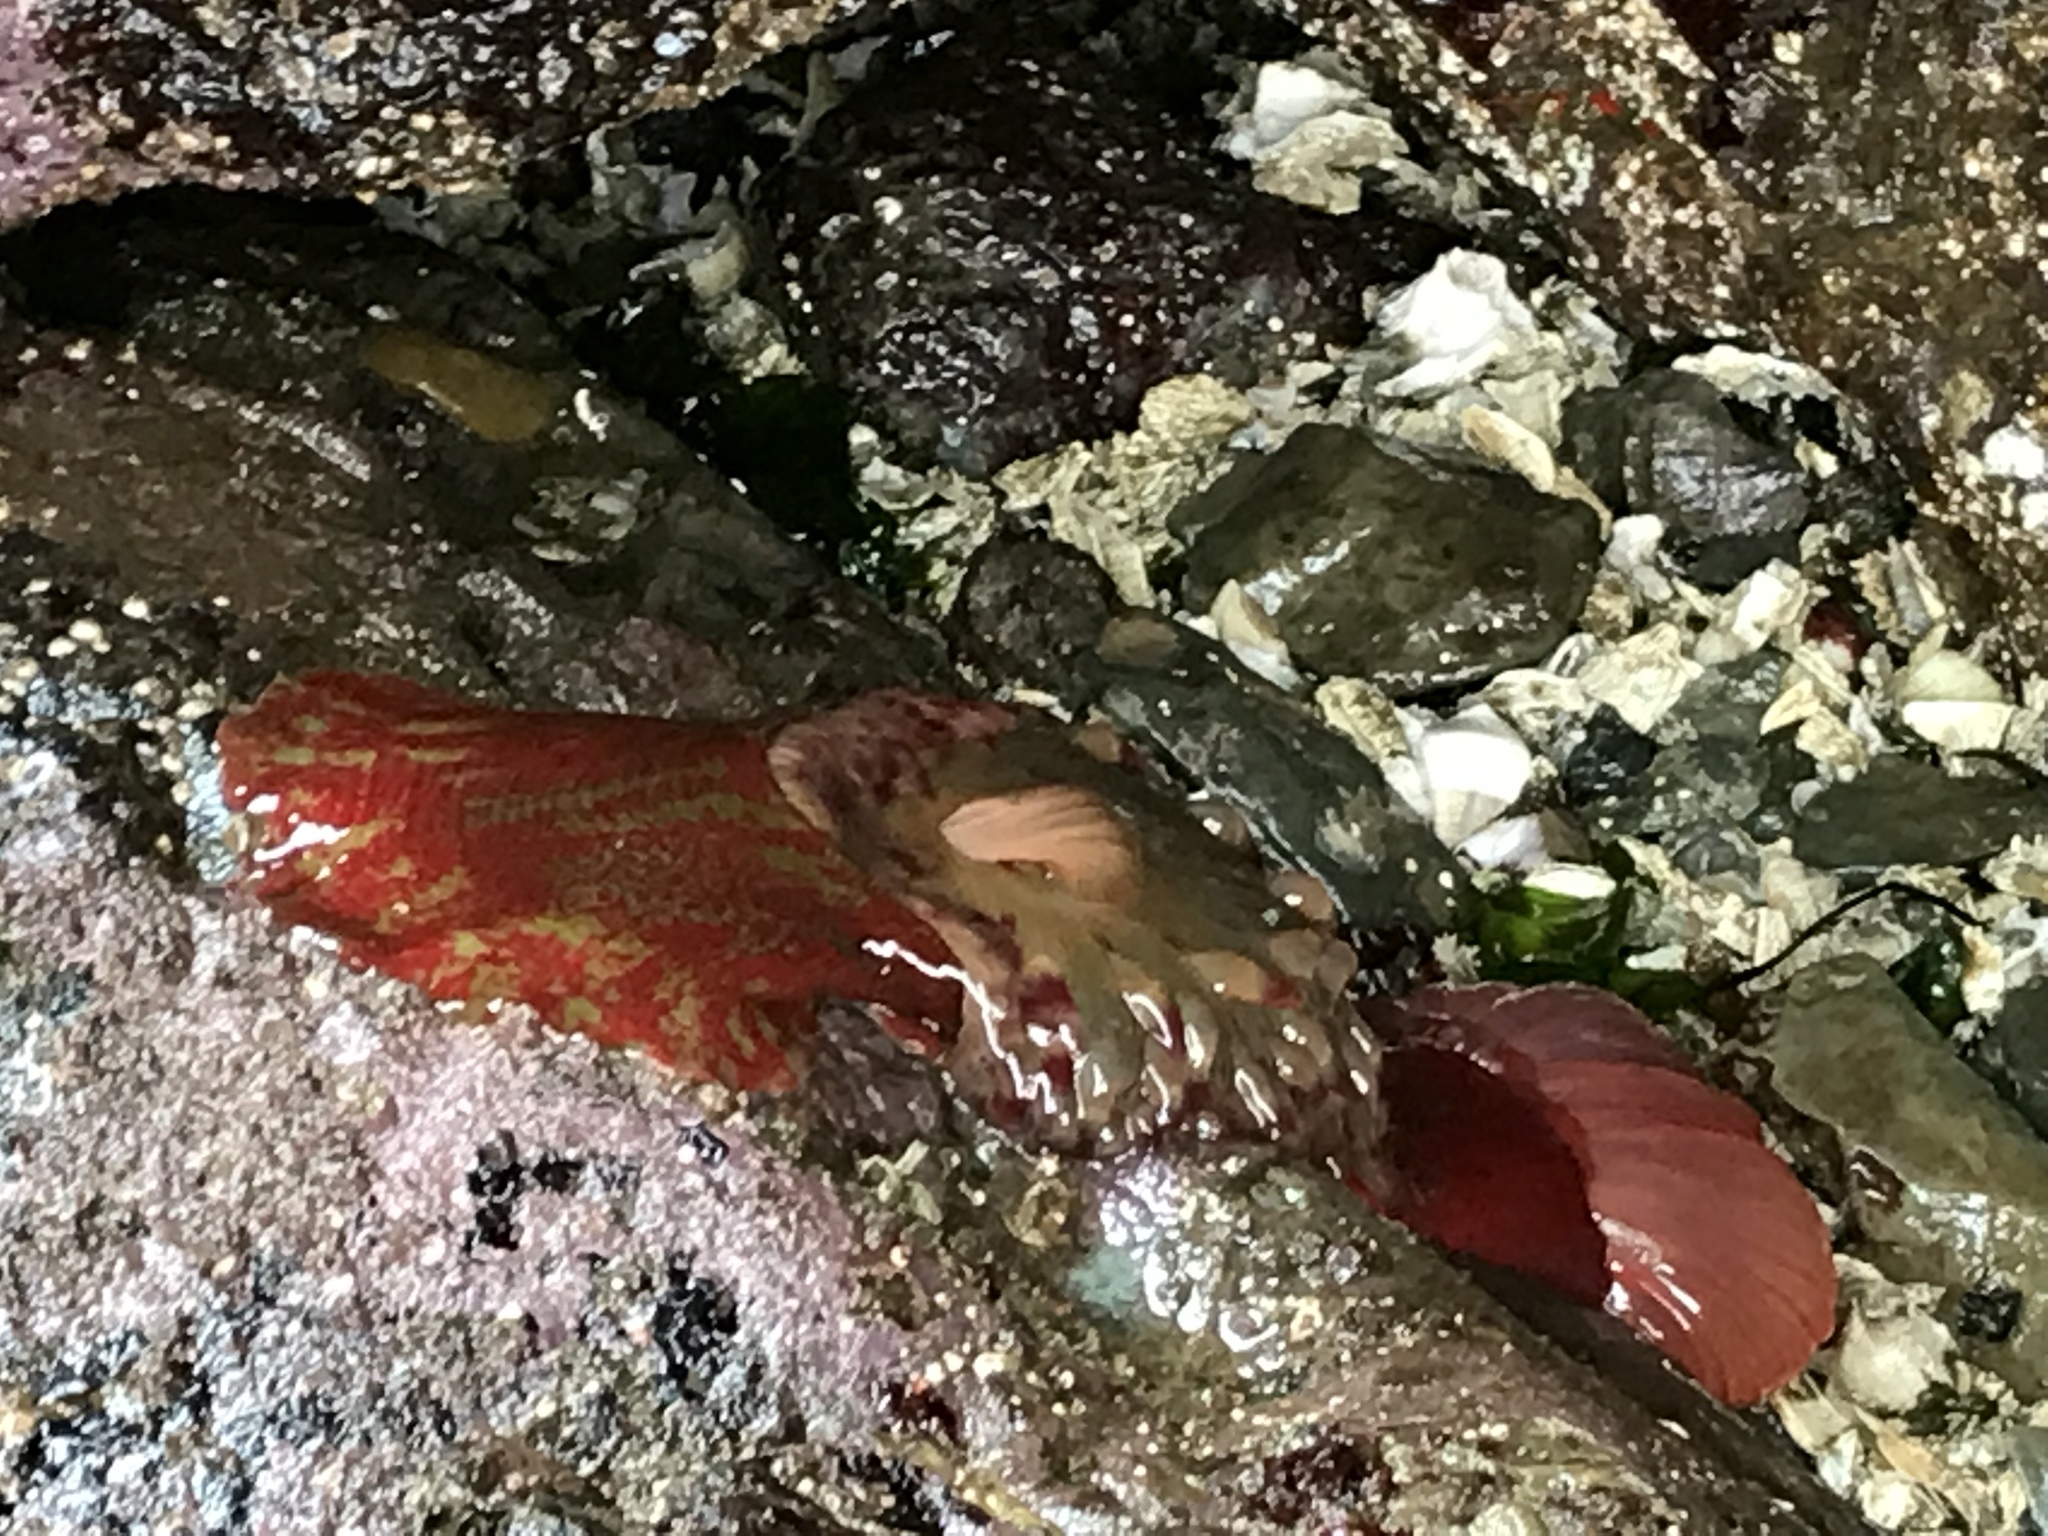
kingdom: Animalia
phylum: Cnidaria
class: Anthozoa
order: Actiniaria
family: Actiniidae
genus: Urticina
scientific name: Urticina grebelnyi
